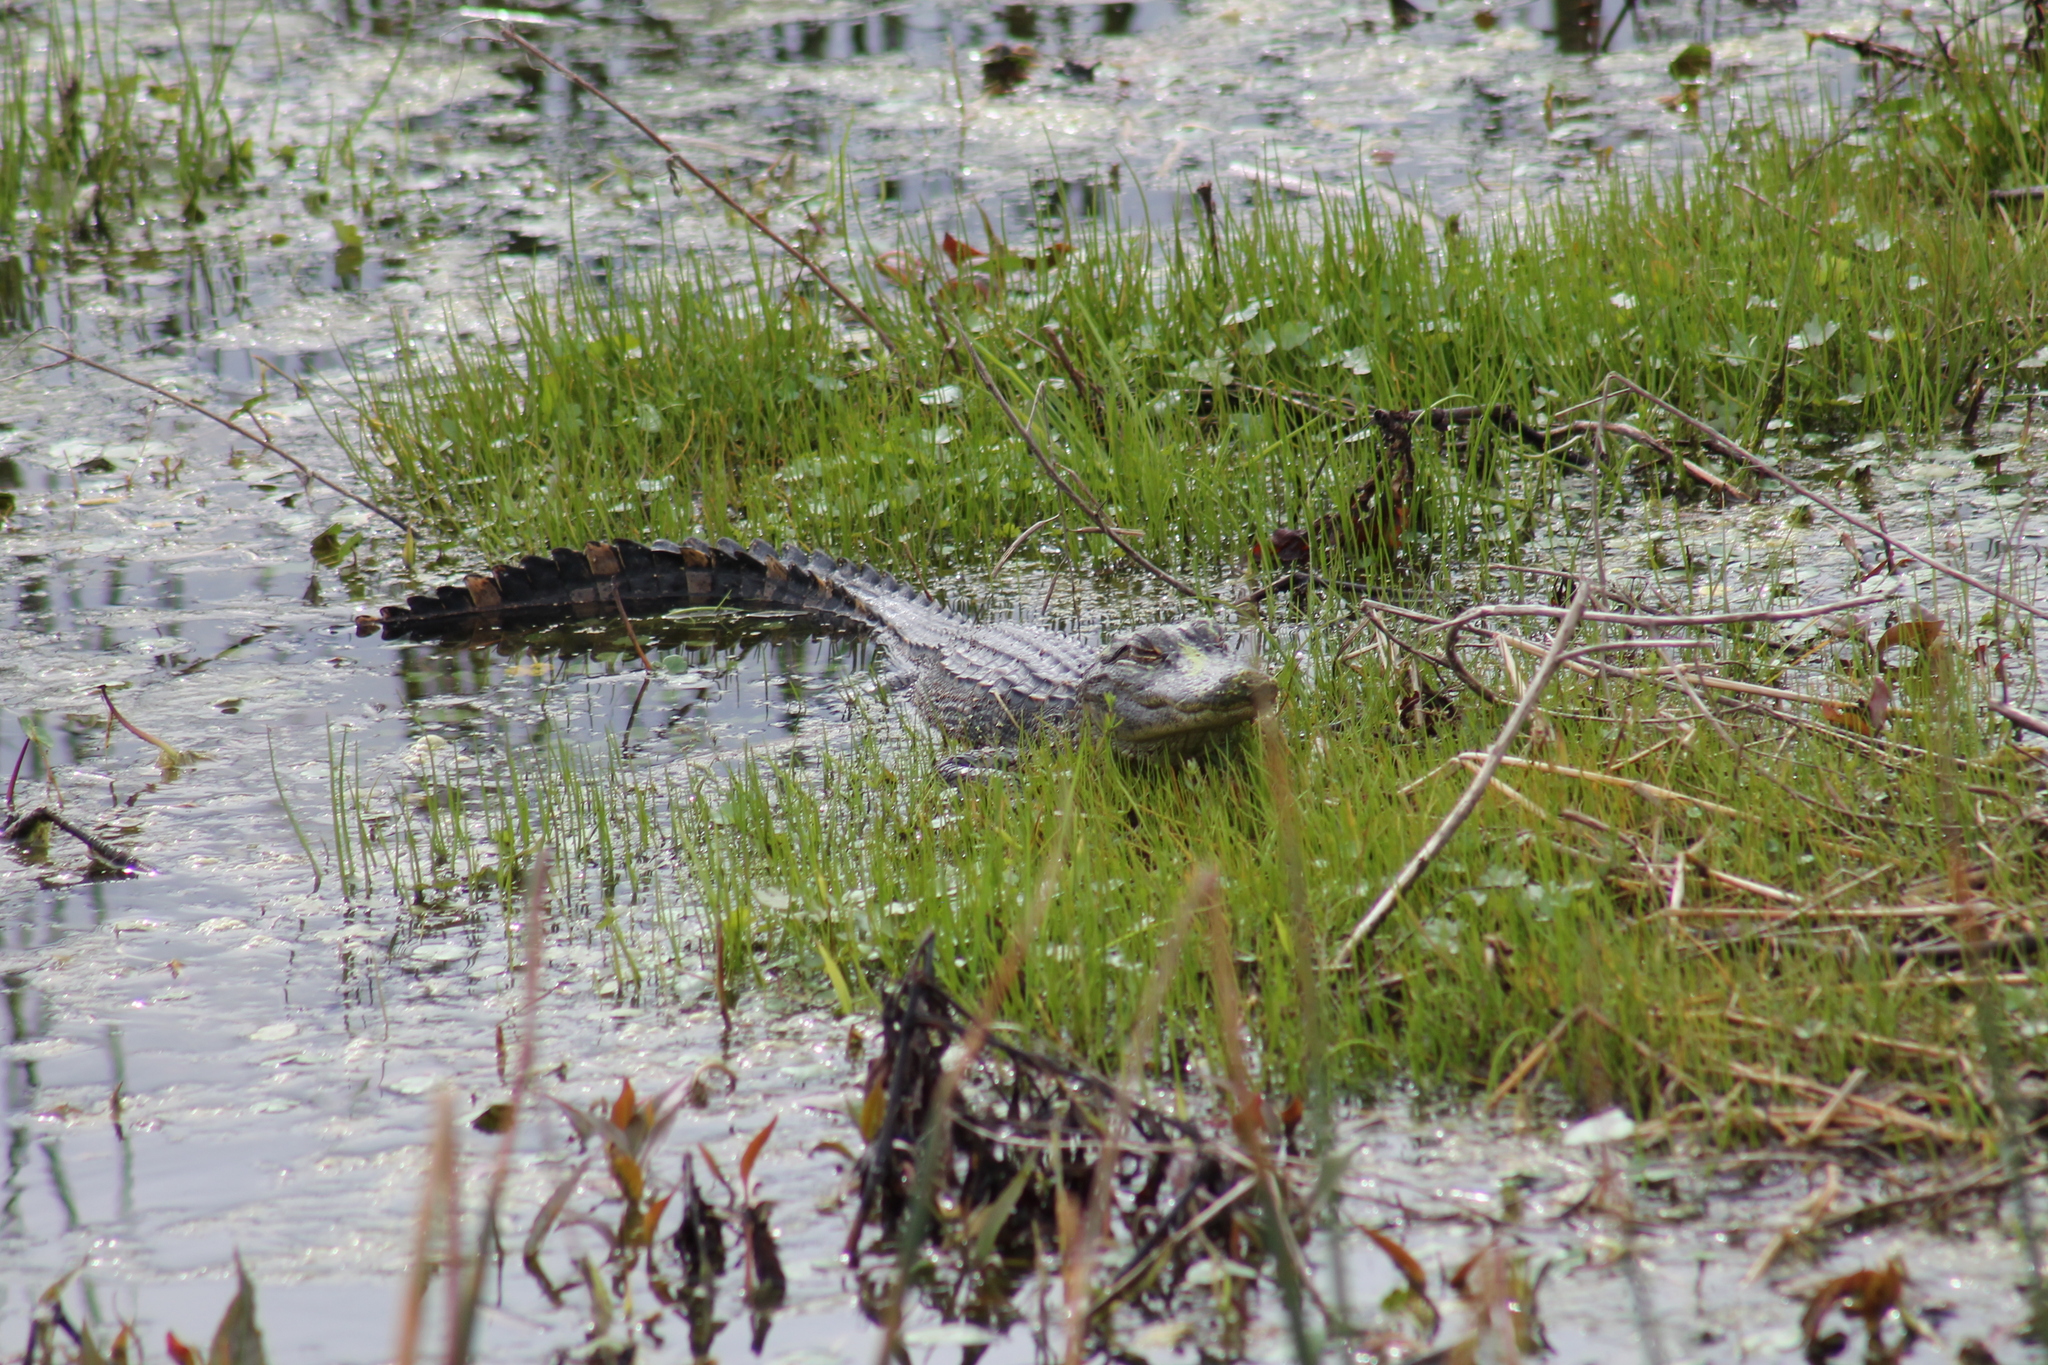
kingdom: Animalia
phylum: Chordata
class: Crocodylia
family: Alligatoridae
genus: Alligator
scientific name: Alligator mississippiensis
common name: American alligator
